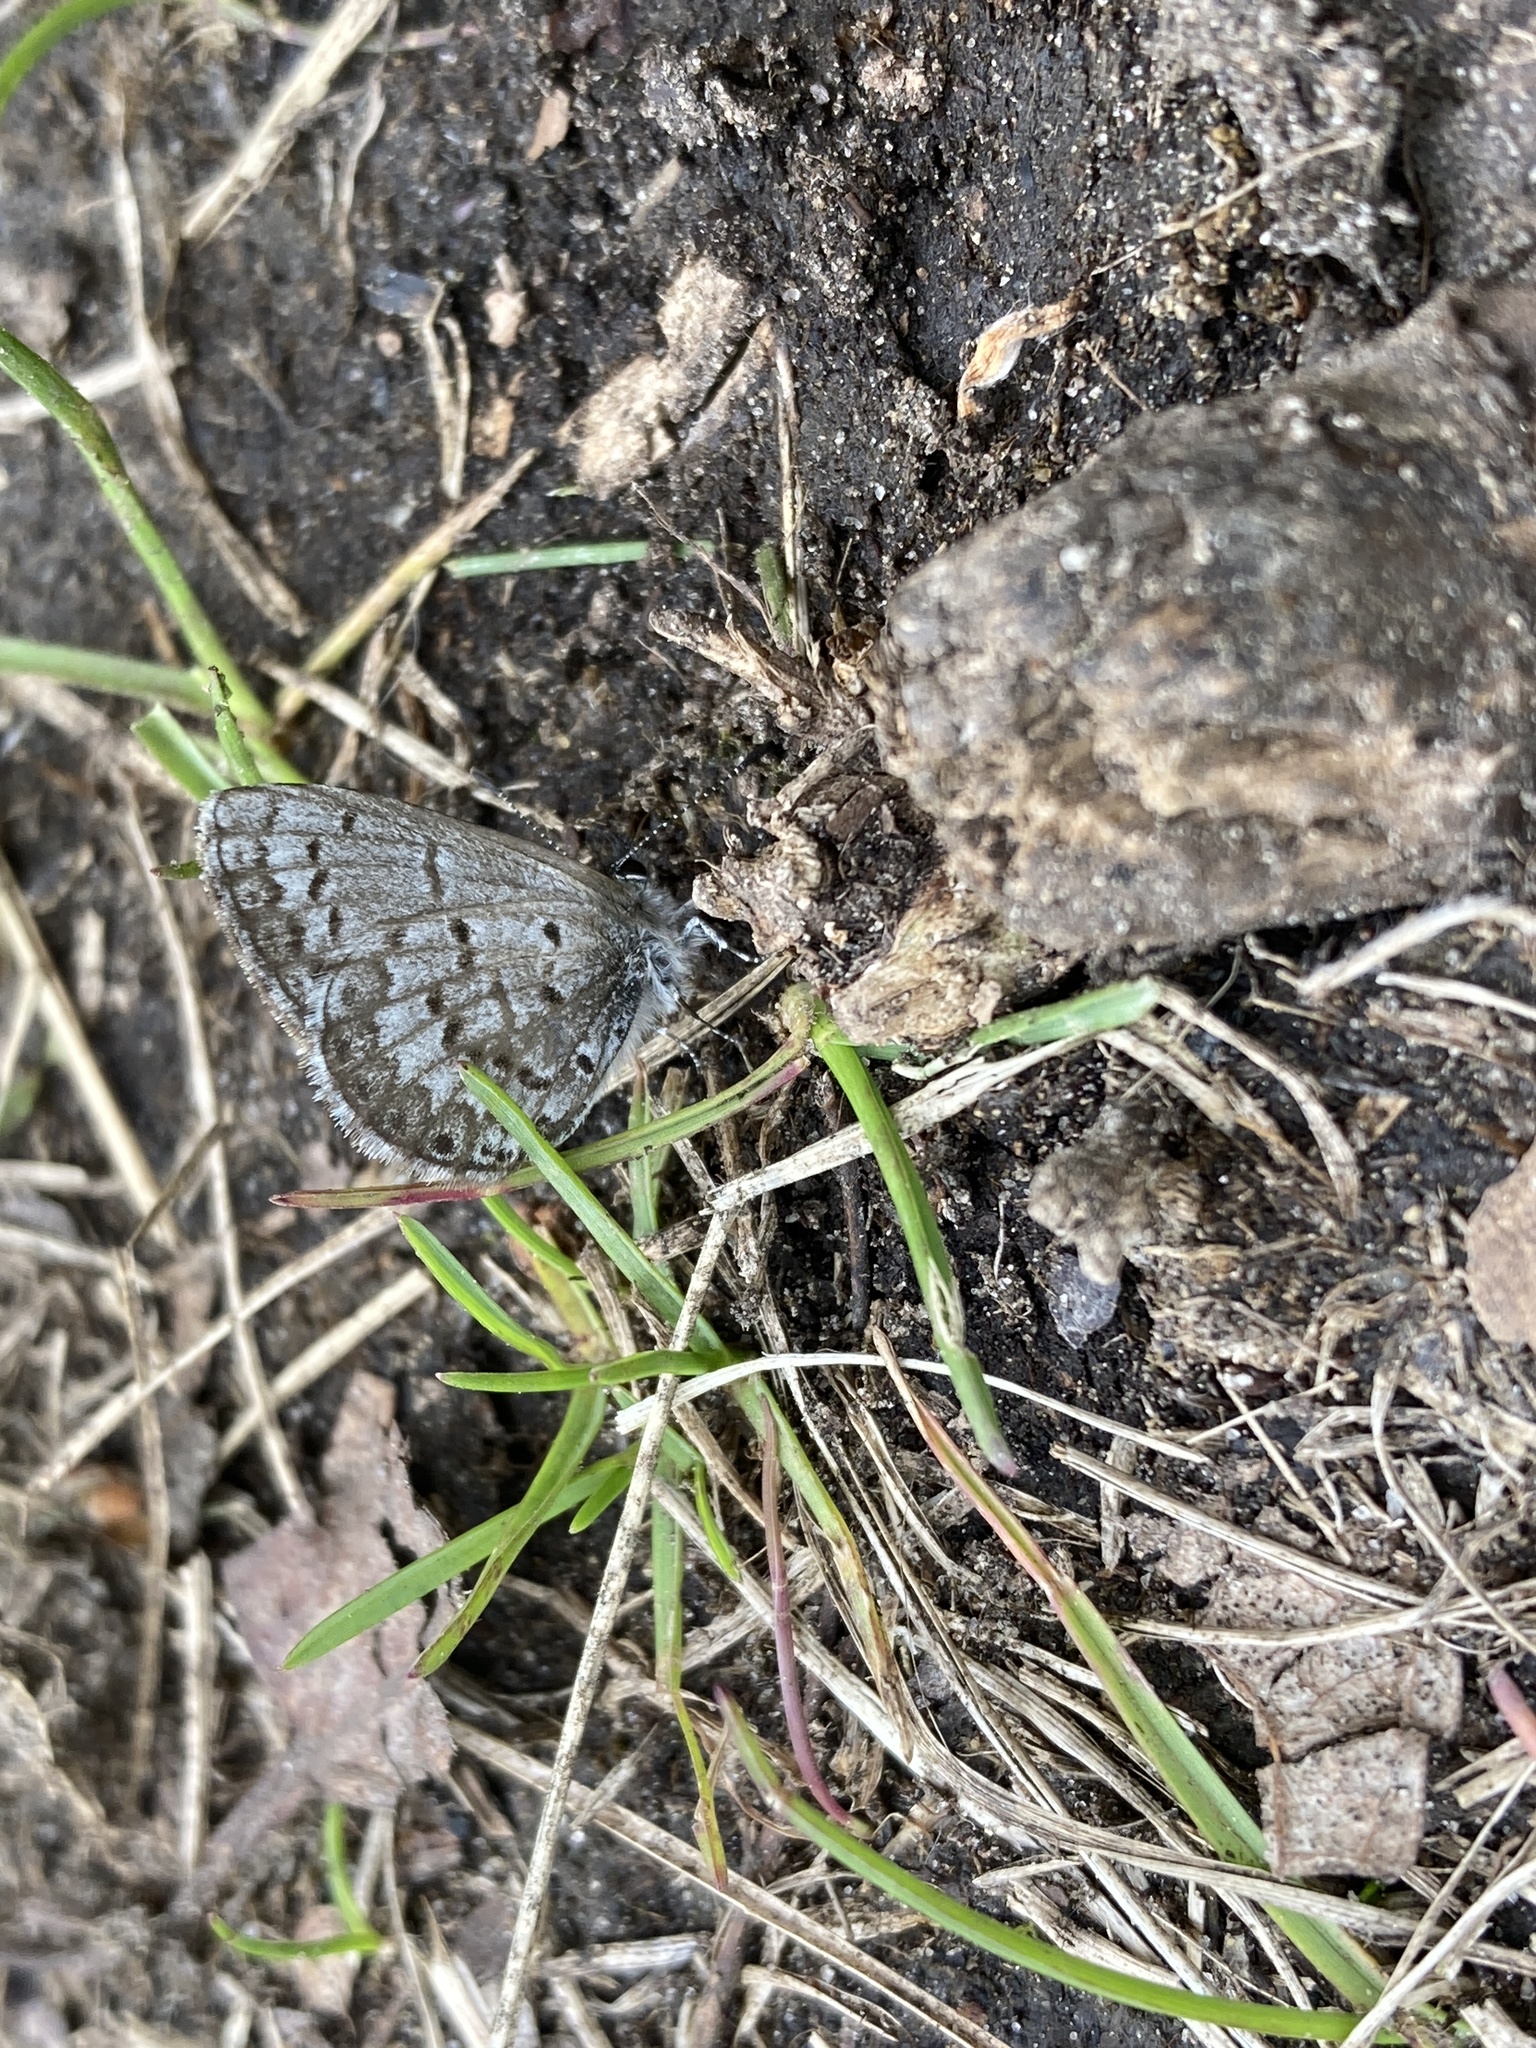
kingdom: Animalia
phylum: Arthropoda
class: Insecta
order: Lepidoptera
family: Lycaenidae
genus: Celastrina
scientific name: Celastrina lucia
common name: Lucia azure
